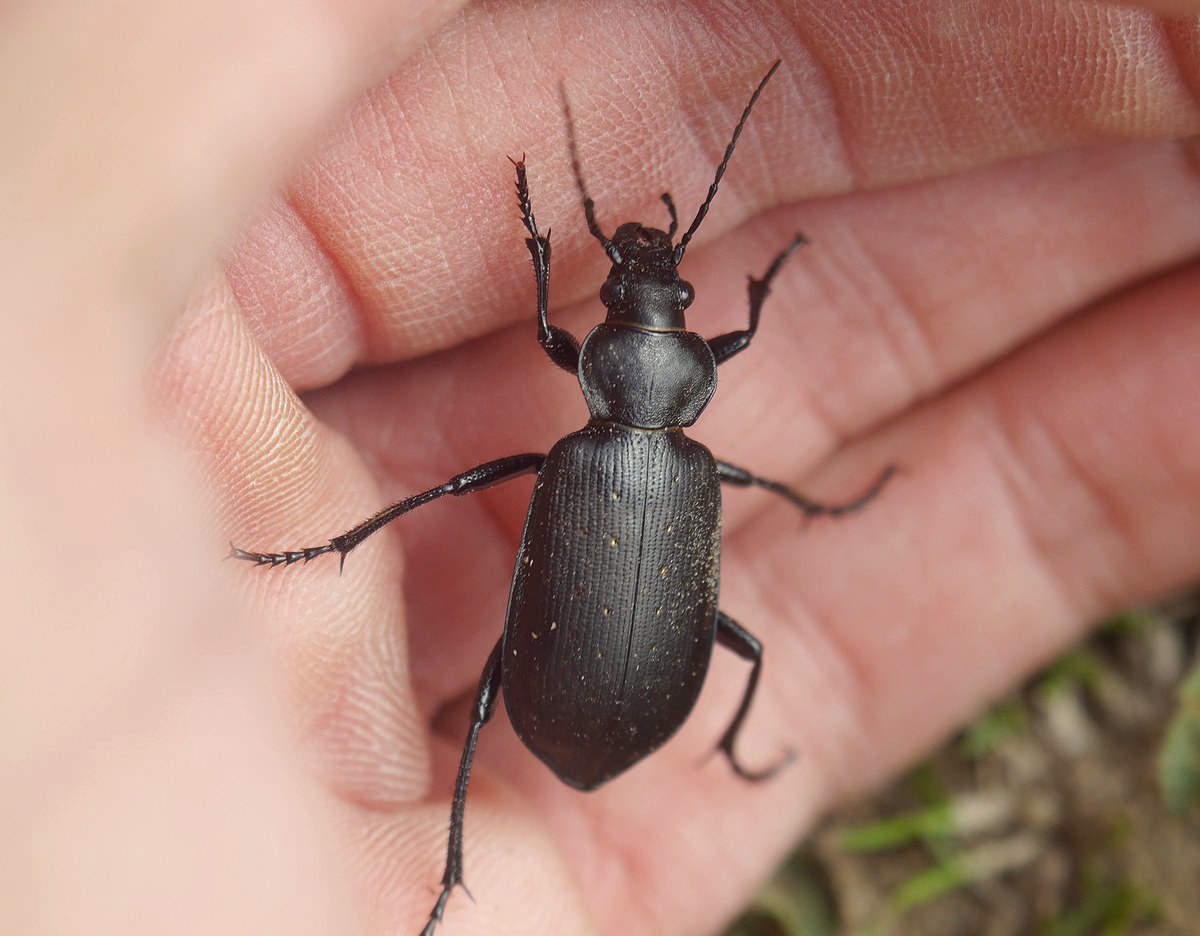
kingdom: Animalia
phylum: Arthropoda
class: Insecta
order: Coleoptera
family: Carabidae
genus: Calosoma
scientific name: Calosoma maderae
